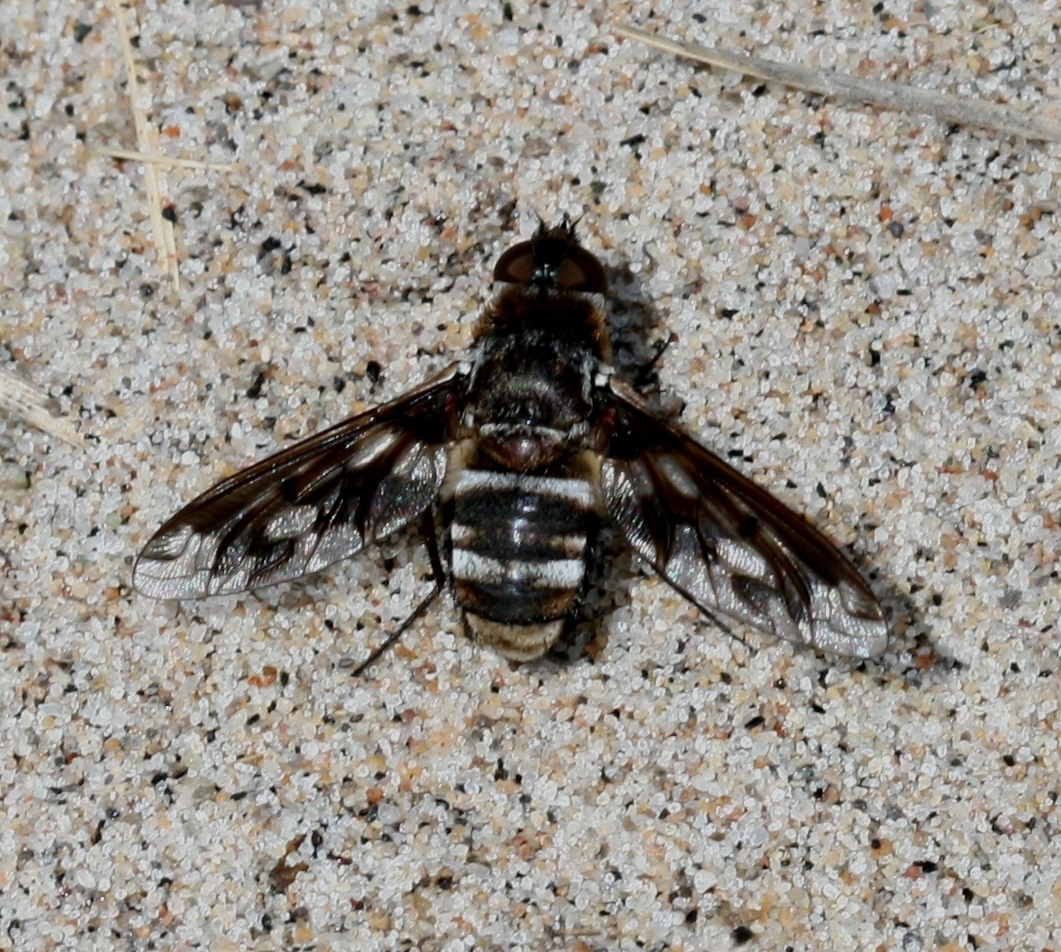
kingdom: Animalia
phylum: Arthropoda
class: Insecta
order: Diptera
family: Bombyliidae
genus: Exoprosopa
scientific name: Exoprosopa fascipennis
